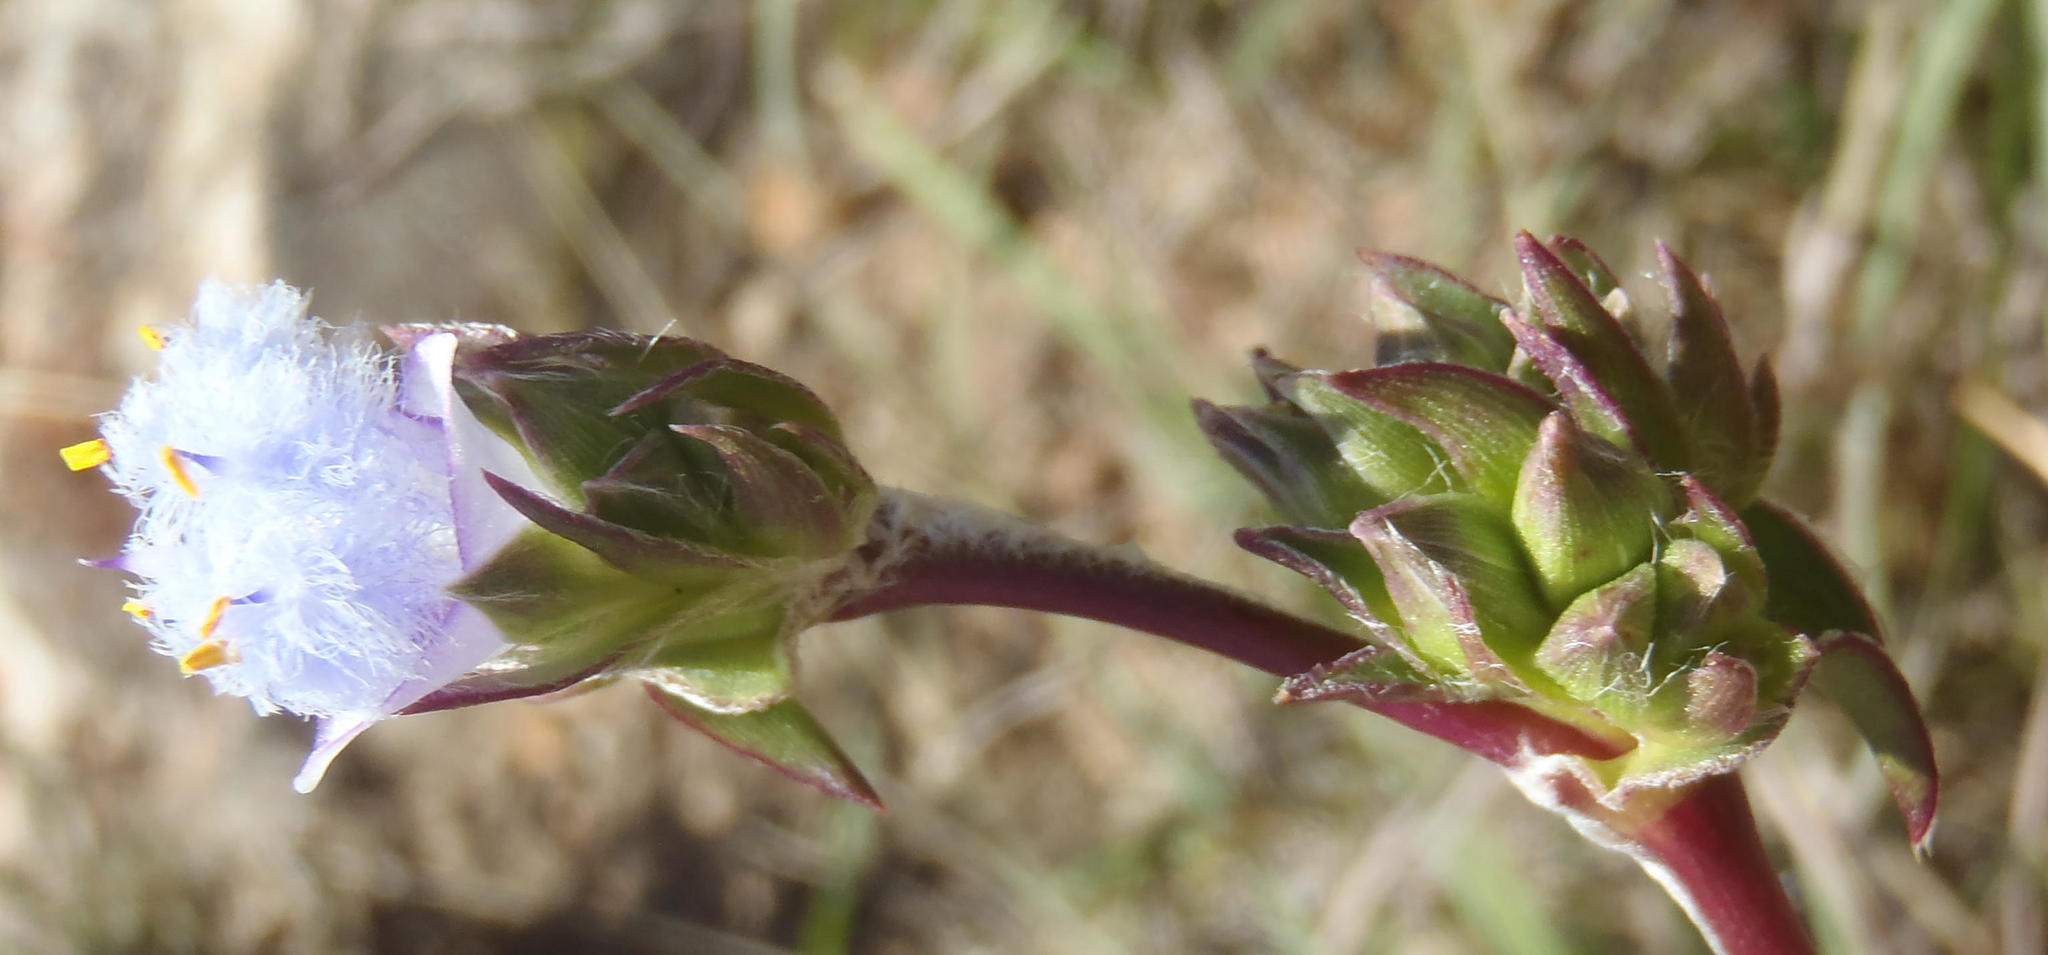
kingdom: Plantae
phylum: Tracheophyta
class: Liliopsida
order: Commelinales
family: Commelinaceae
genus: Cyanotis
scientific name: Cyanotis speciosa
